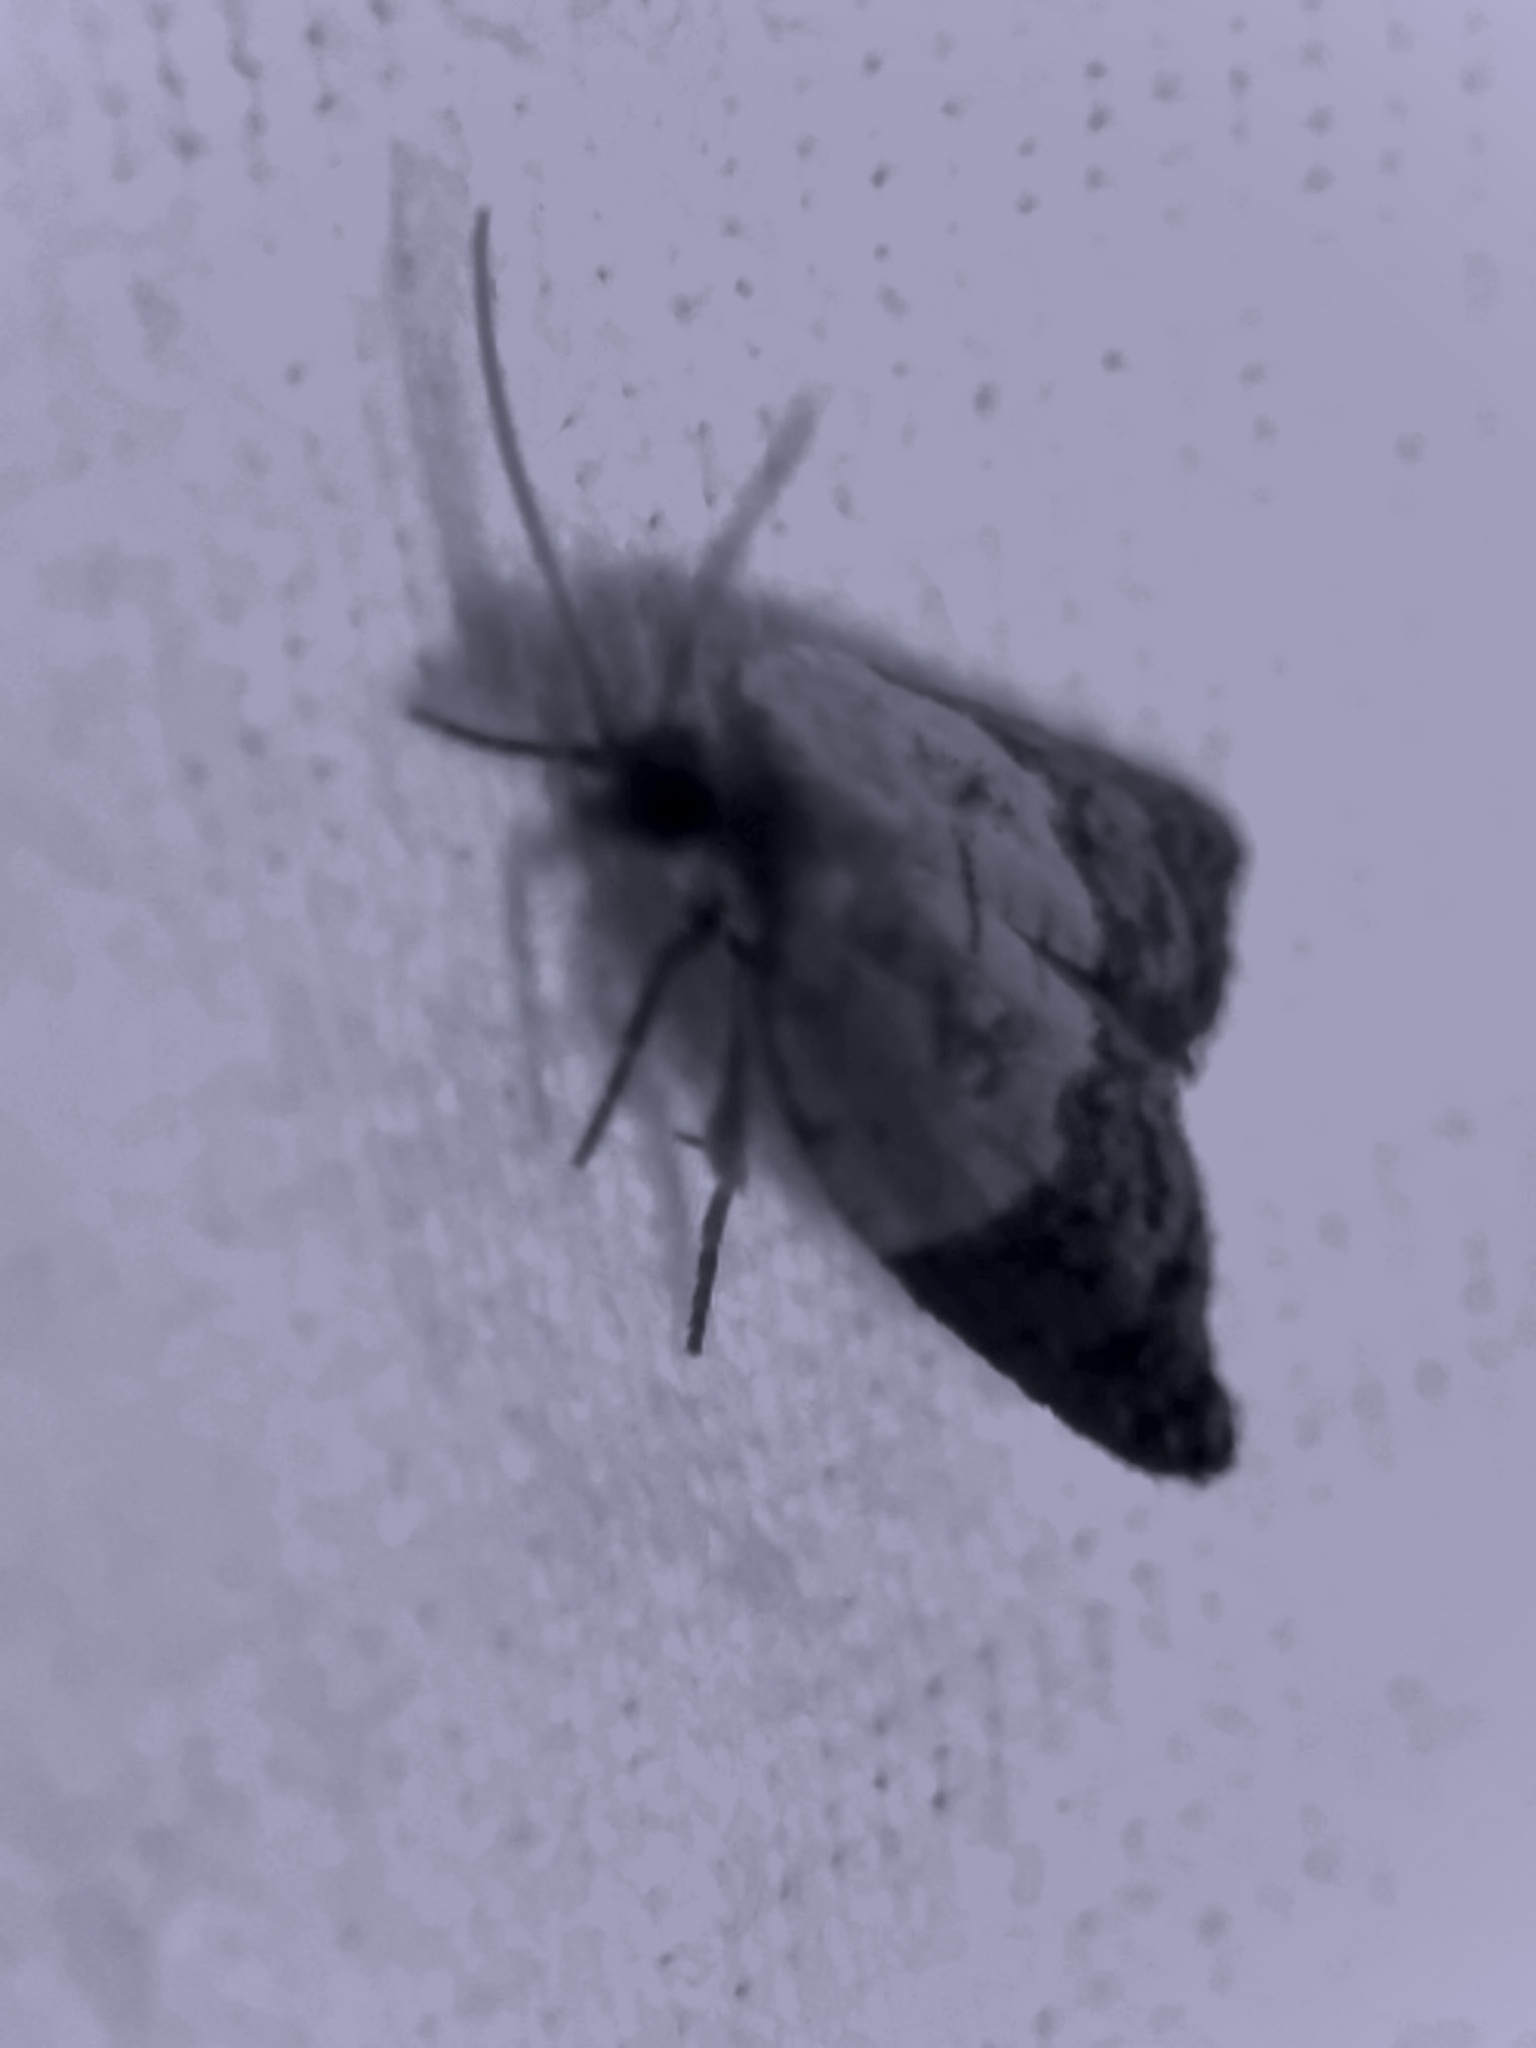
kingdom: Animalia
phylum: Arthropoda
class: Insecta
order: Lepidoptera
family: Tortricidae
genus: Acleris
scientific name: Acleris variegana
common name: Garden rose tortrix
